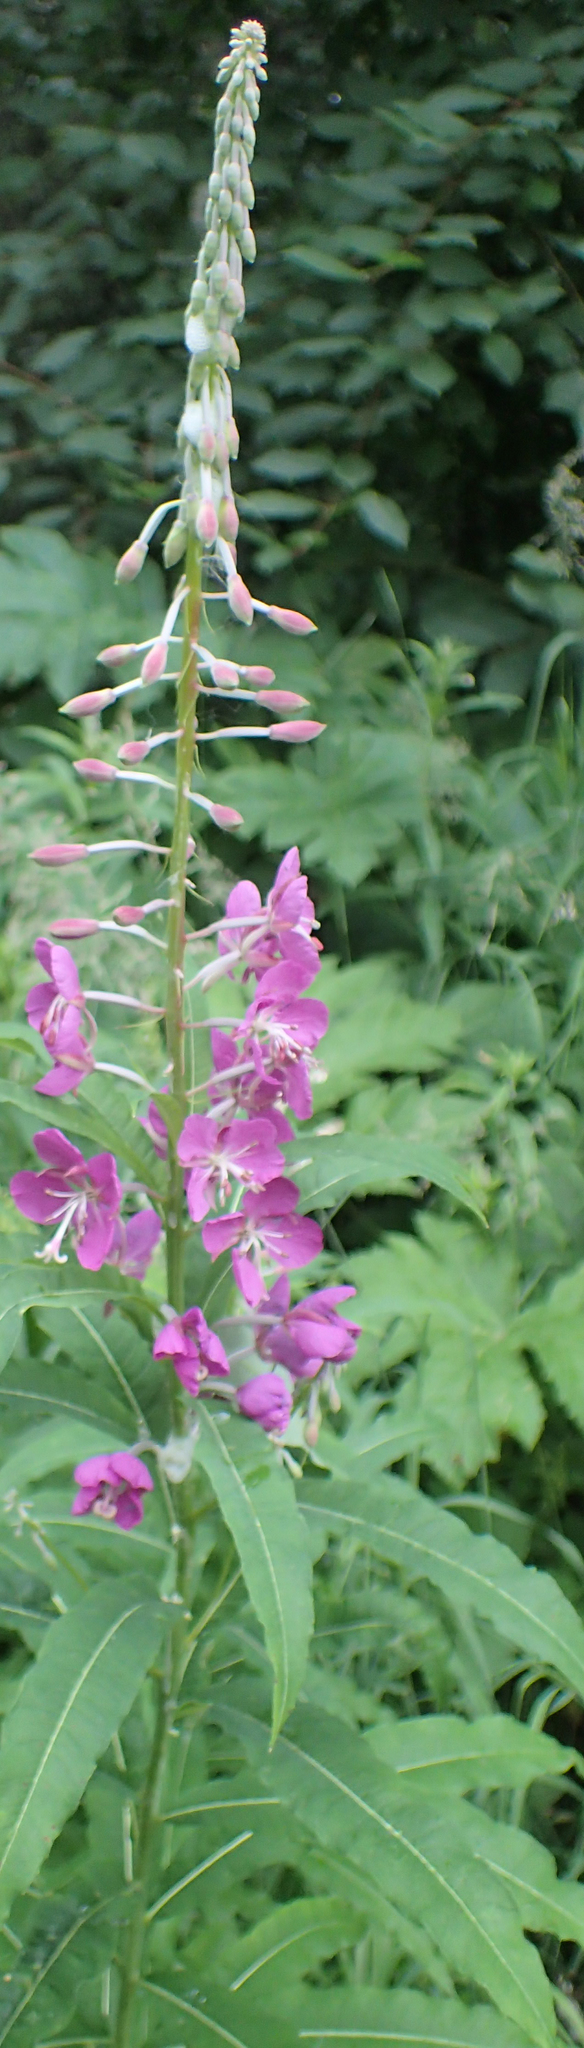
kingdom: Plantae
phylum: Tracheophyta
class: Magnoliopsida
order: Myrtales
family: Onagraceae
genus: Chamaenerion
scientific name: Chamaenerion angustifolium
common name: Fireweed
